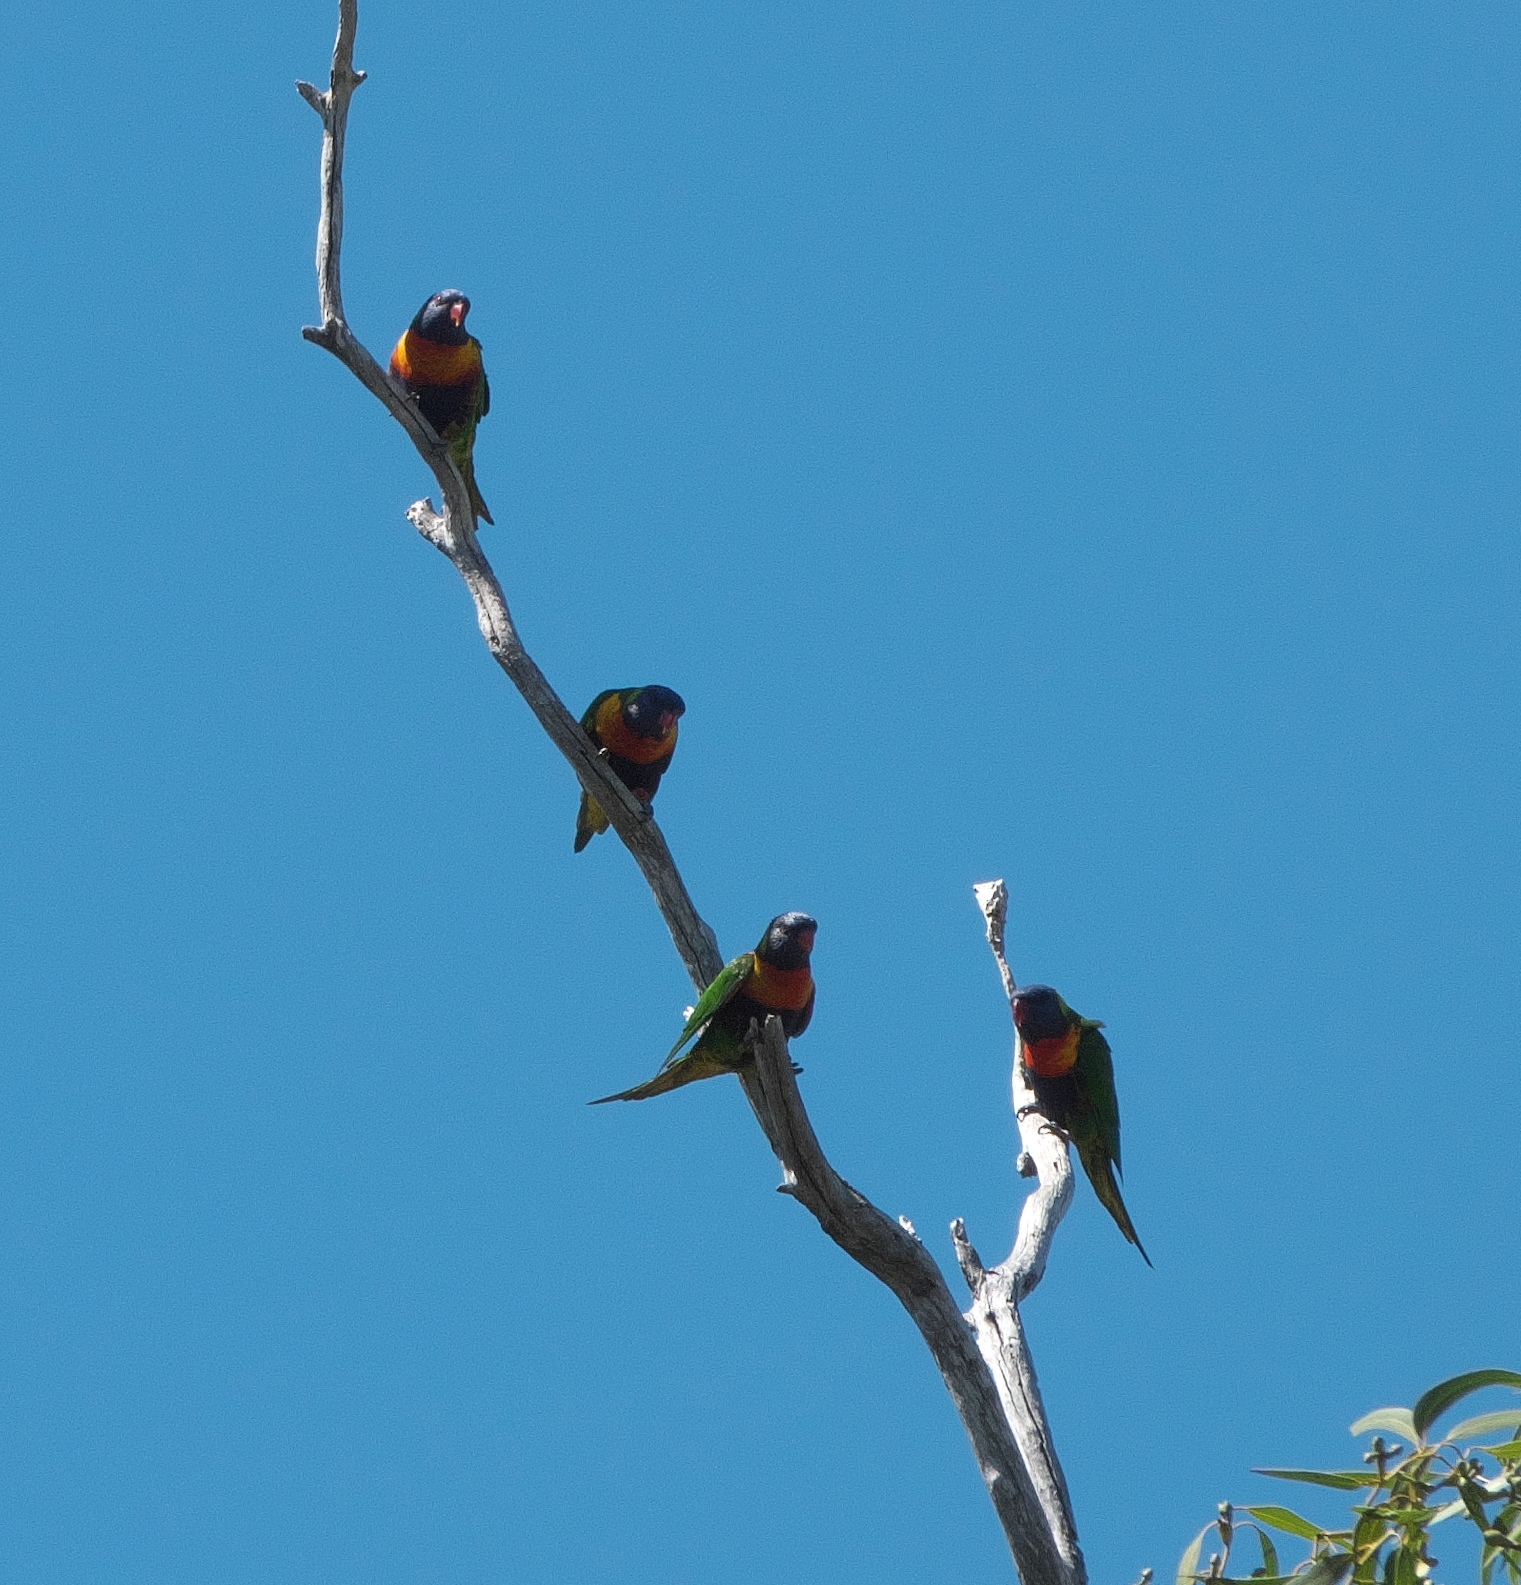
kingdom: Animalia
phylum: Chordata
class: Aves
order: Psittaciformes
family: Psittacidae
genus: Trichoglossus
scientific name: Trichoglossus haematodus
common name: Coconut lorikeet
